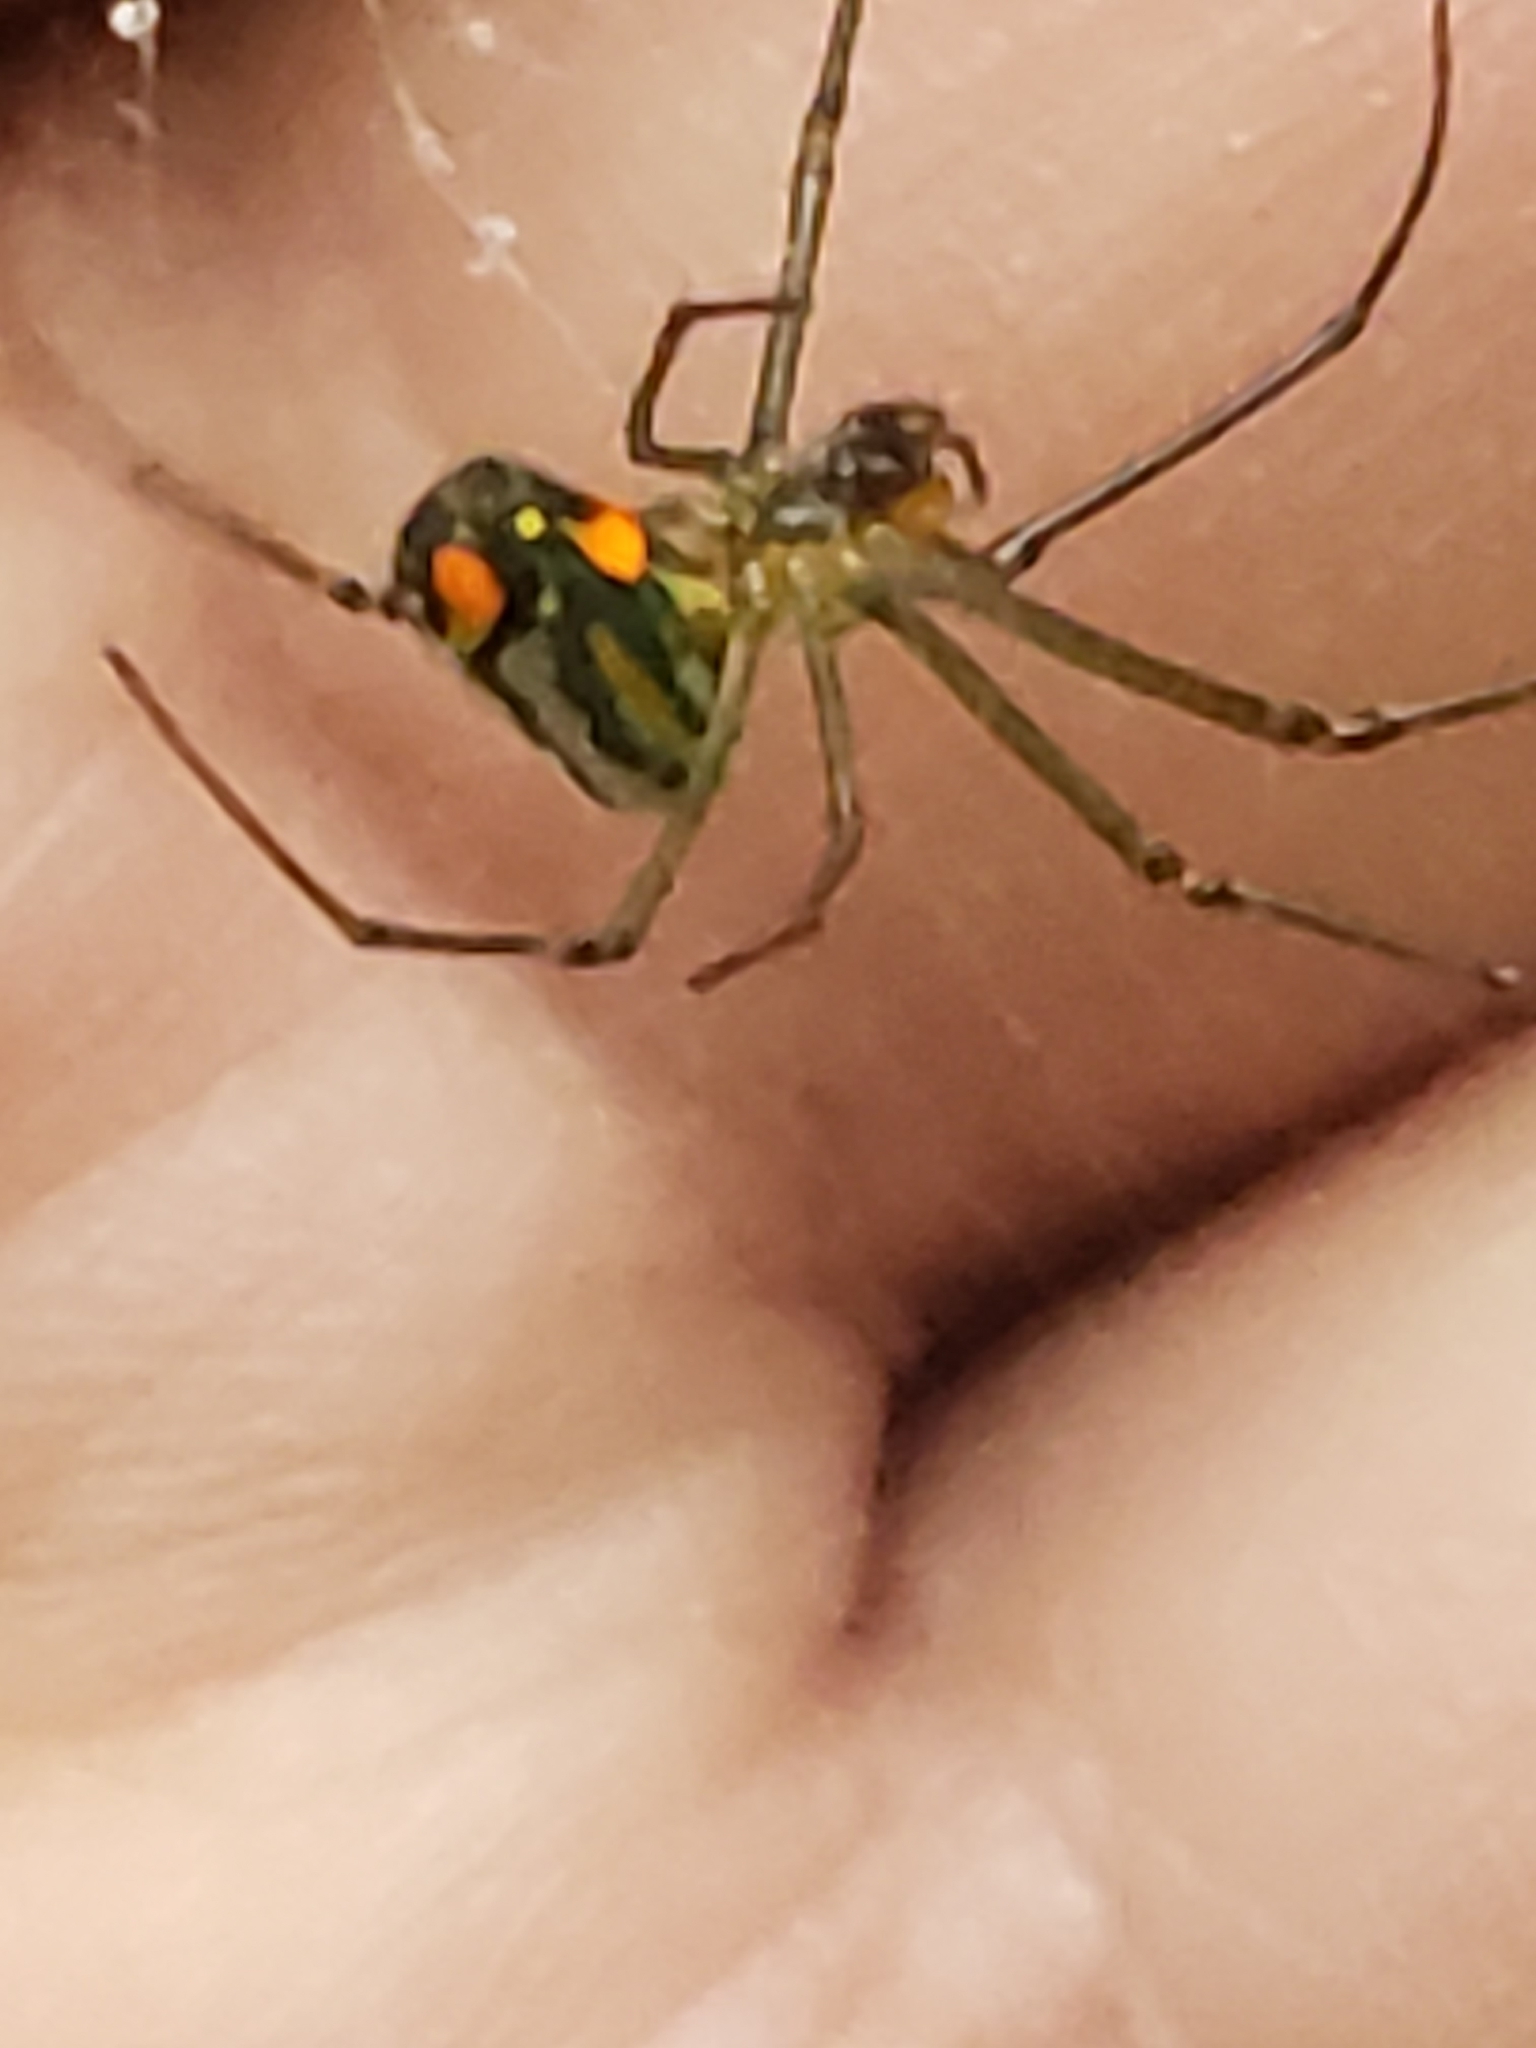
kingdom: Animalia
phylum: Arthropoda
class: Arachnida
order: Araneae
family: Tetragnathidae
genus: Leucauge
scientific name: Leucauge argyrobapta
